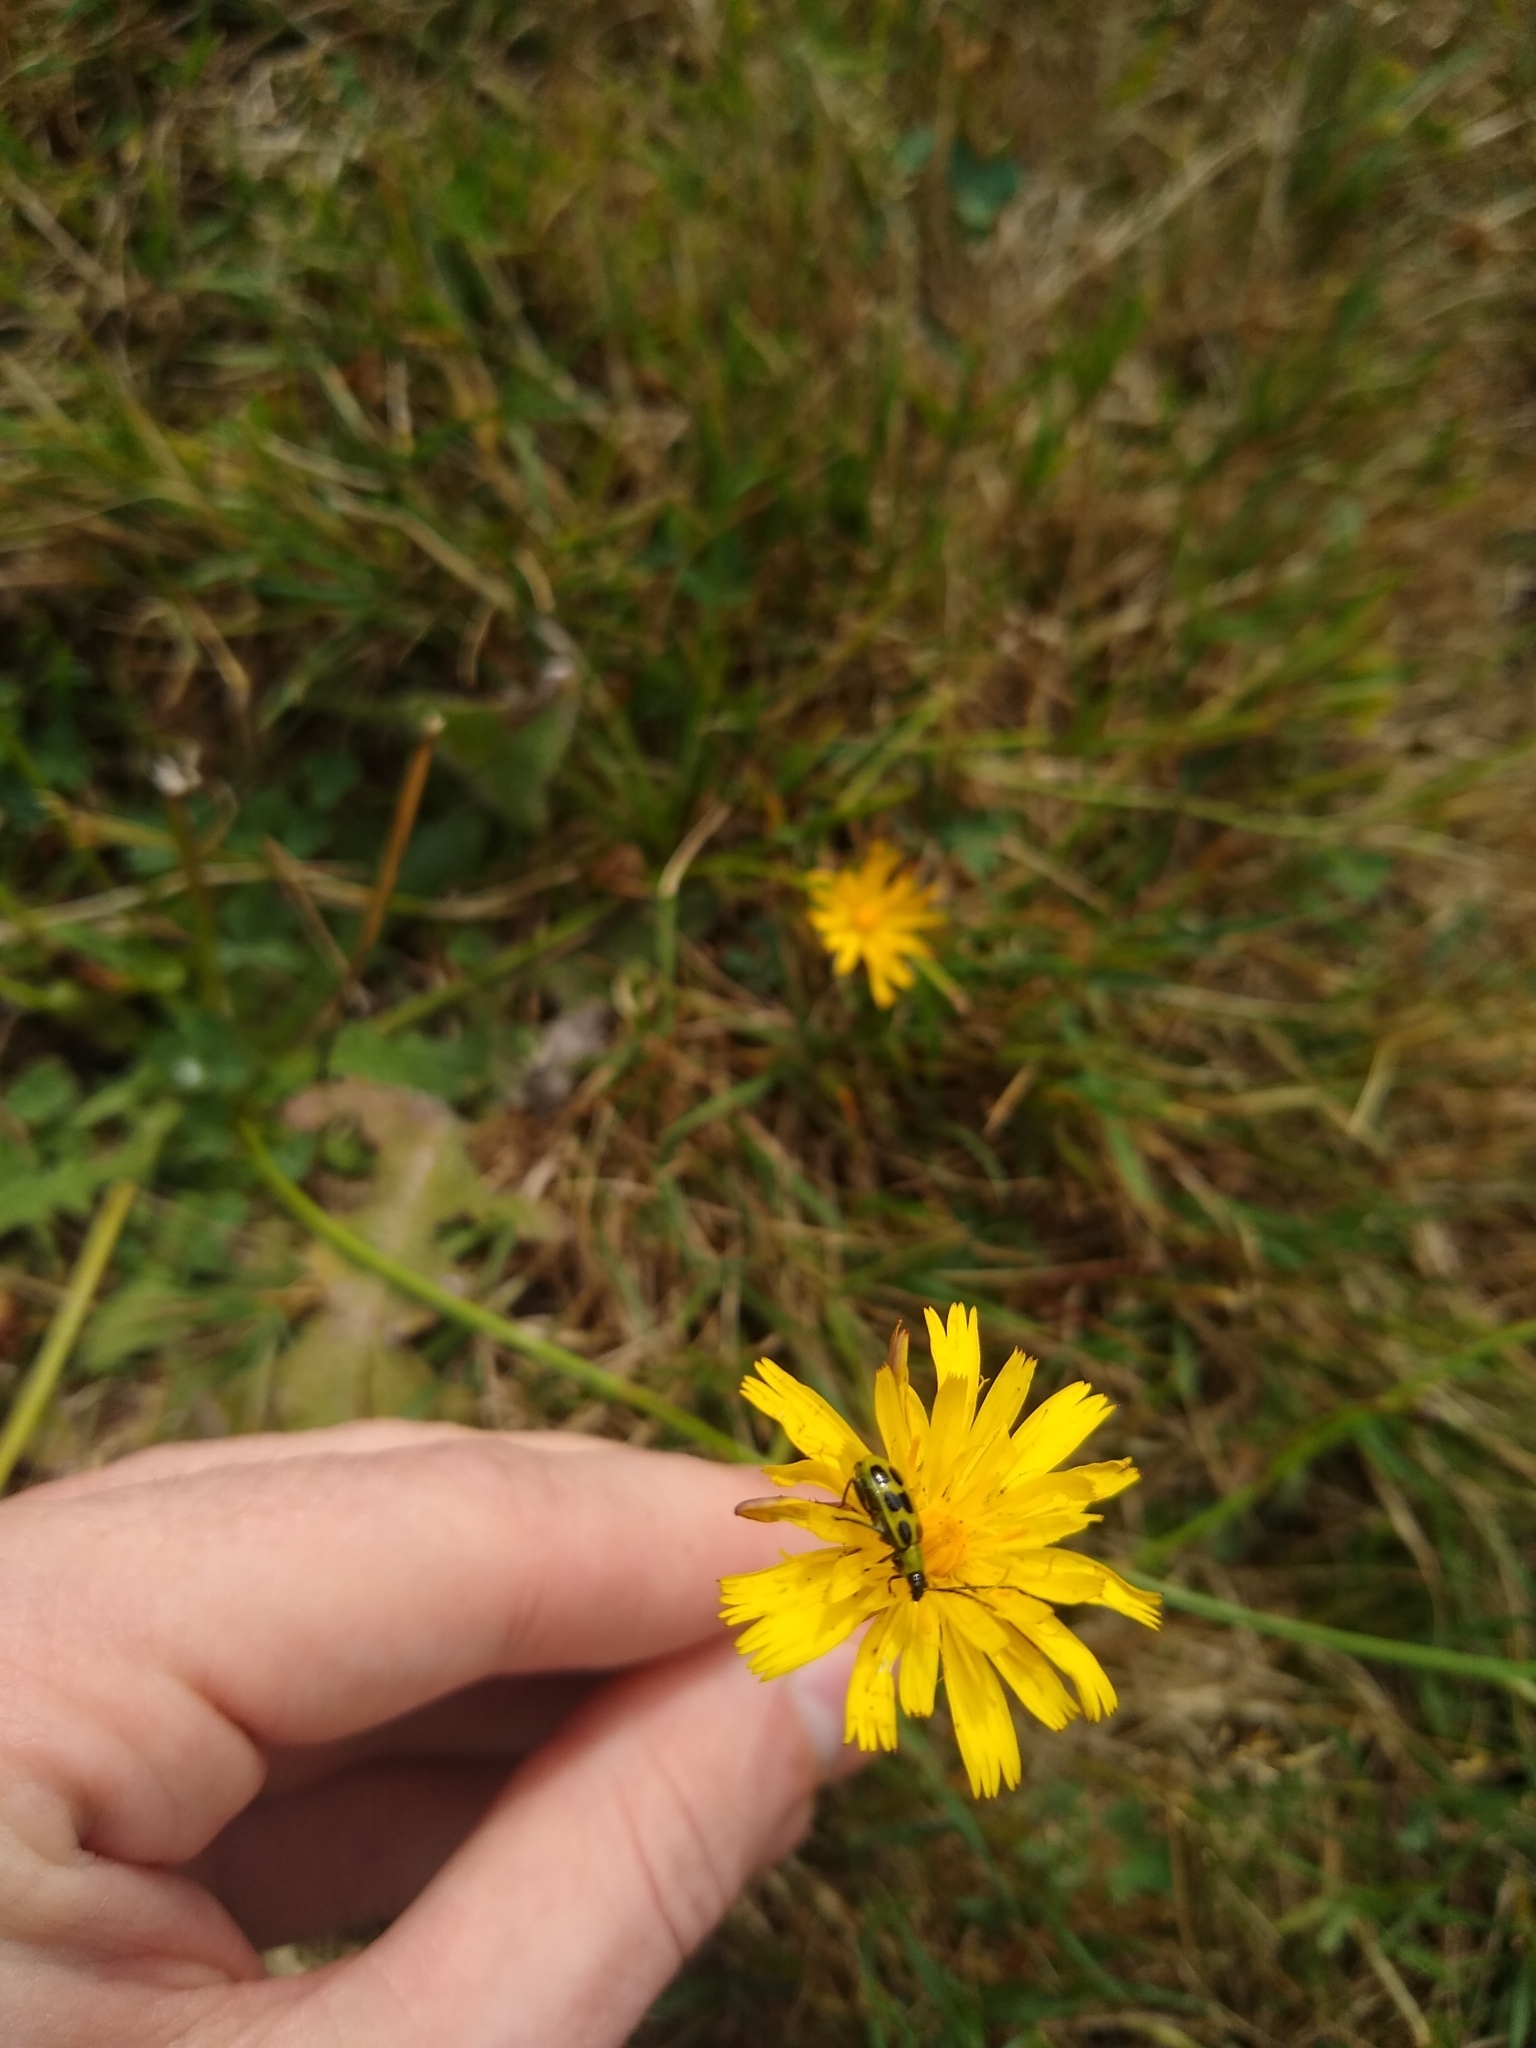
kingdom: Animalia
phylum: Arthropoda
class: Insecta
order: Coleoptera
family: Chrysomelidae
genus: Diabrotica
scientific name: Diabrotica undecimpunctata
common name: Spotted cucumber beetle
